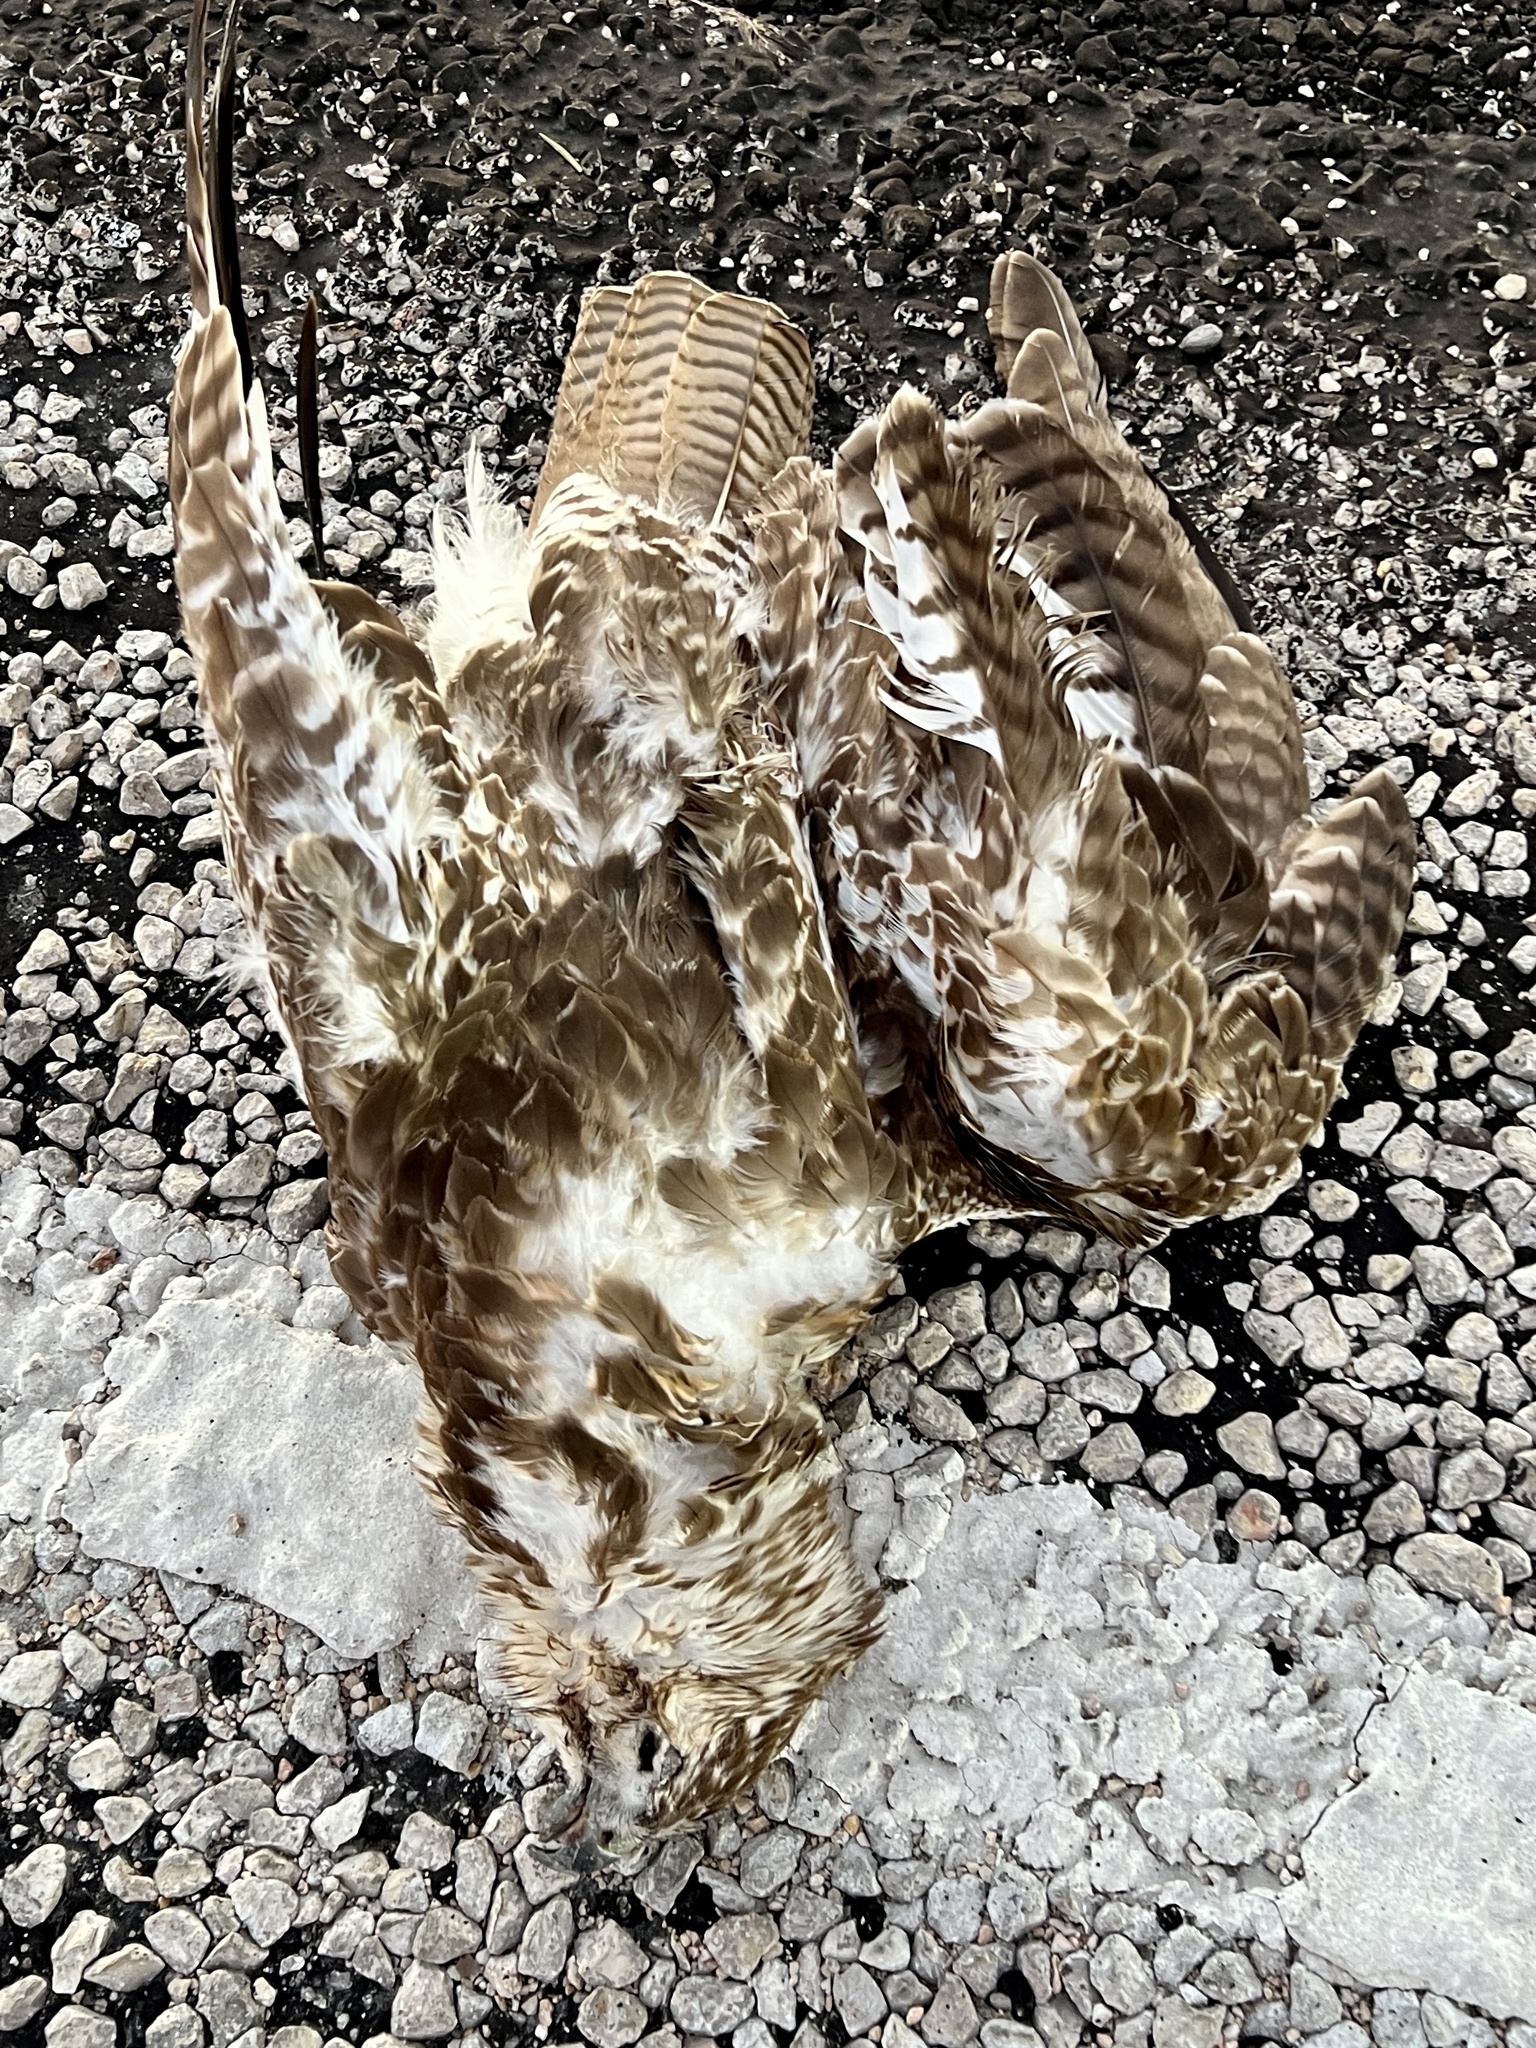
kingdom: Animalia
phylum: Chordata
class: Aves
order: Accipitriformes
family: Accipitridae
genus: Buteo
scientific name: Buteo jamaicensis
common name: Red-tailed hawk
